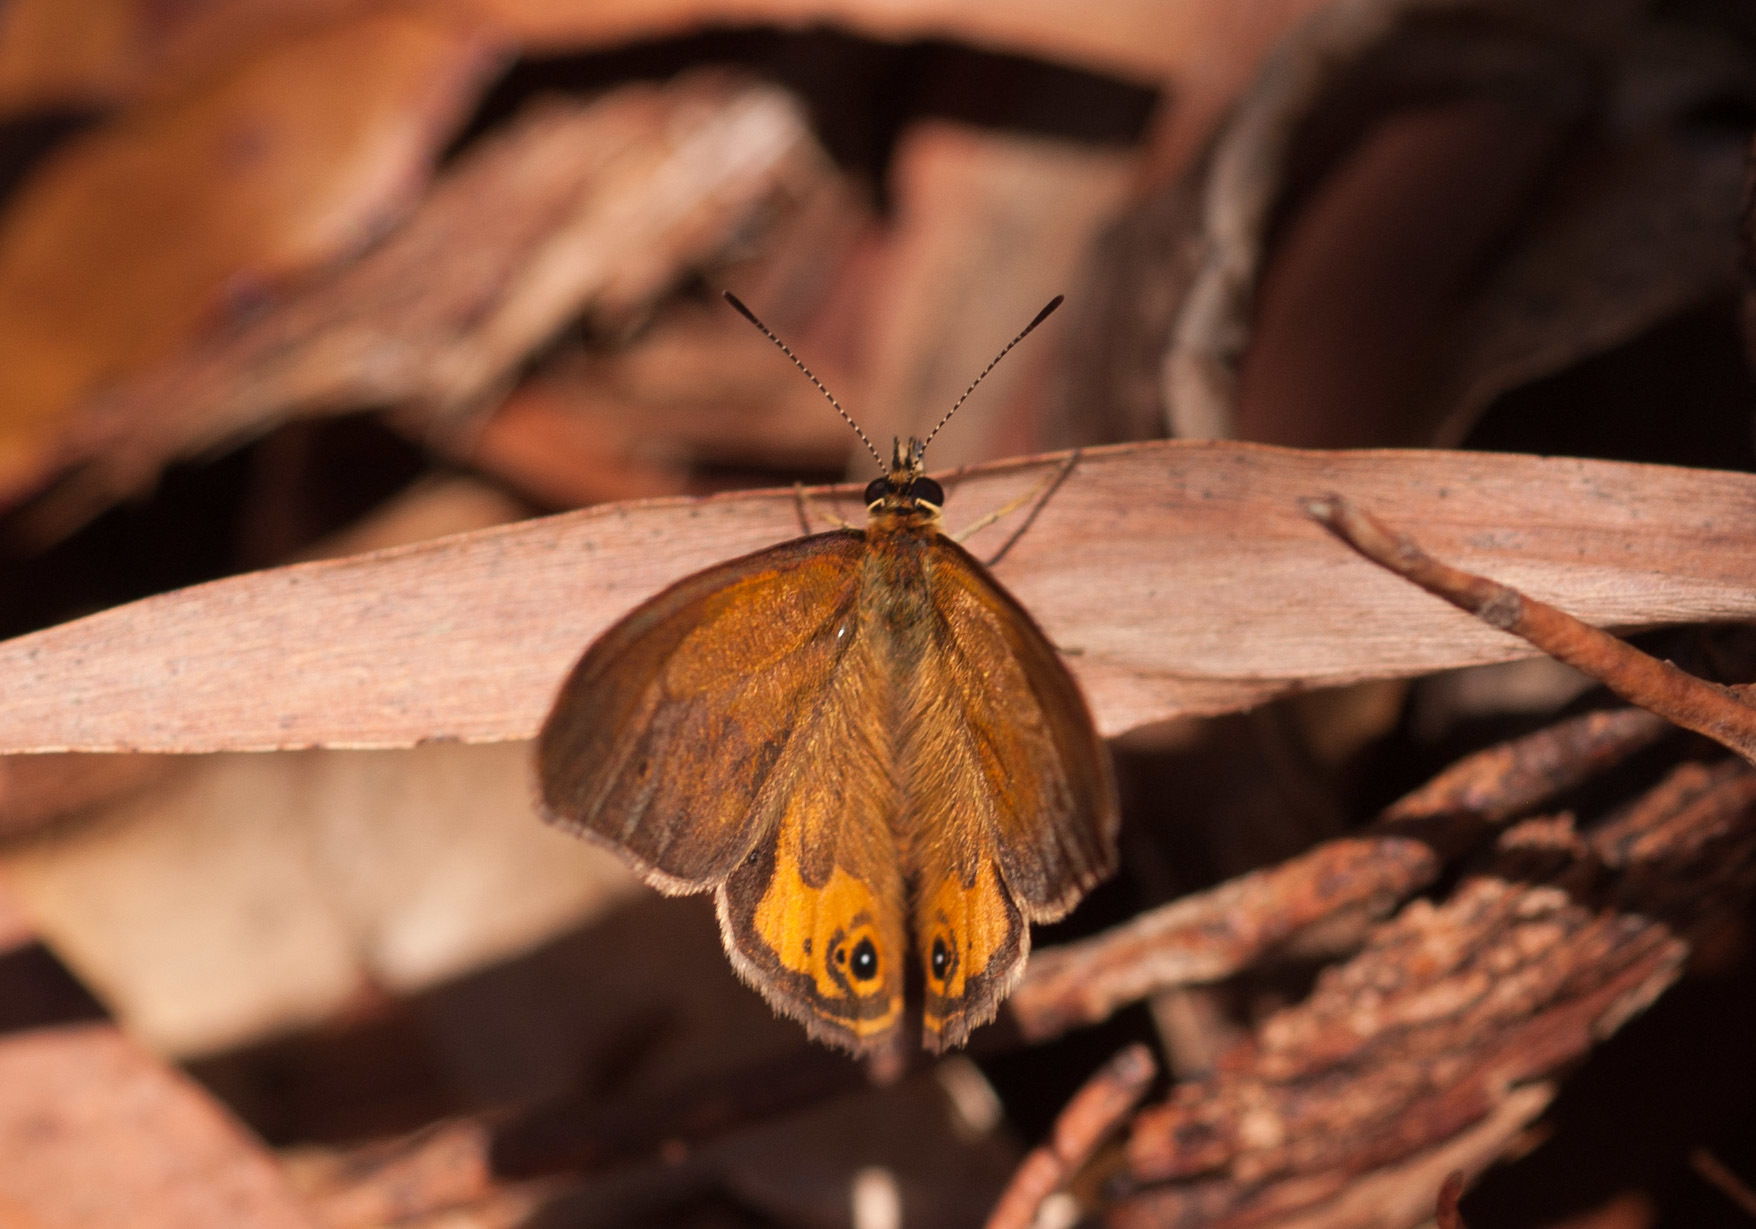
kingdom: Animalia
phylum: Arthropoda
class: Insecta
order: Lepidoptera
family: Nymphalidae
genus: Hypocysta
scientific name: Hypocysta metirius
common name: Brown ringlet
